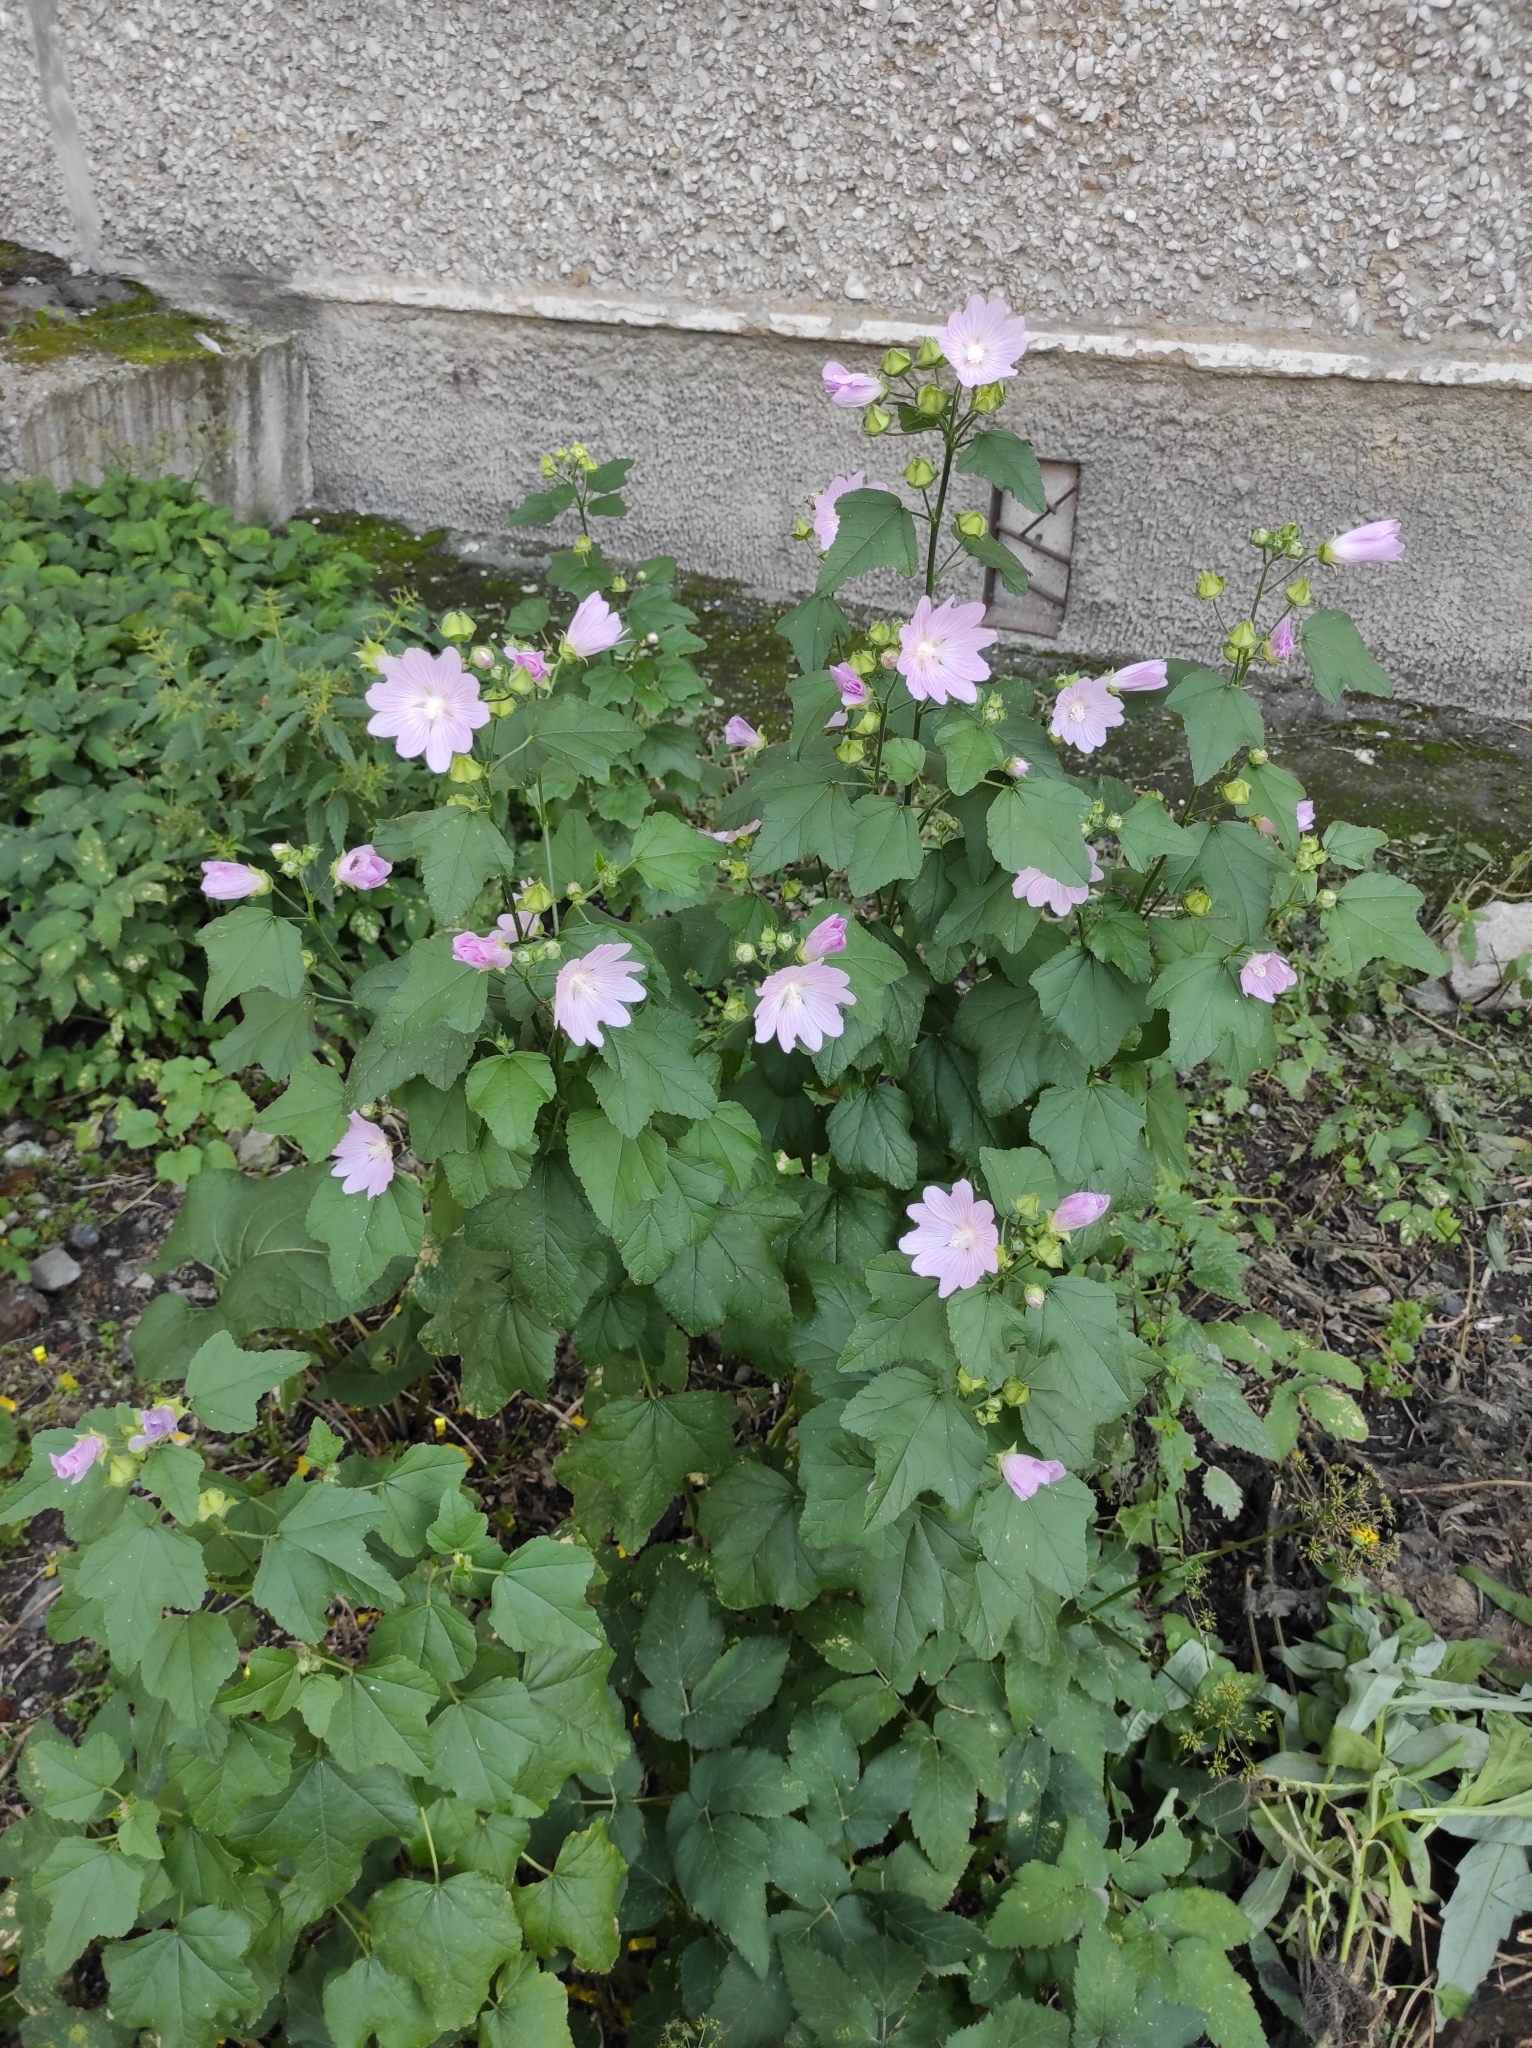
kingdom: Plantae
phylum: Tracheophyta
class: Magnoliopsida
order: Malvales
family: Malvaceae
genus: Malva
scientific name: Malva thuringiaca
